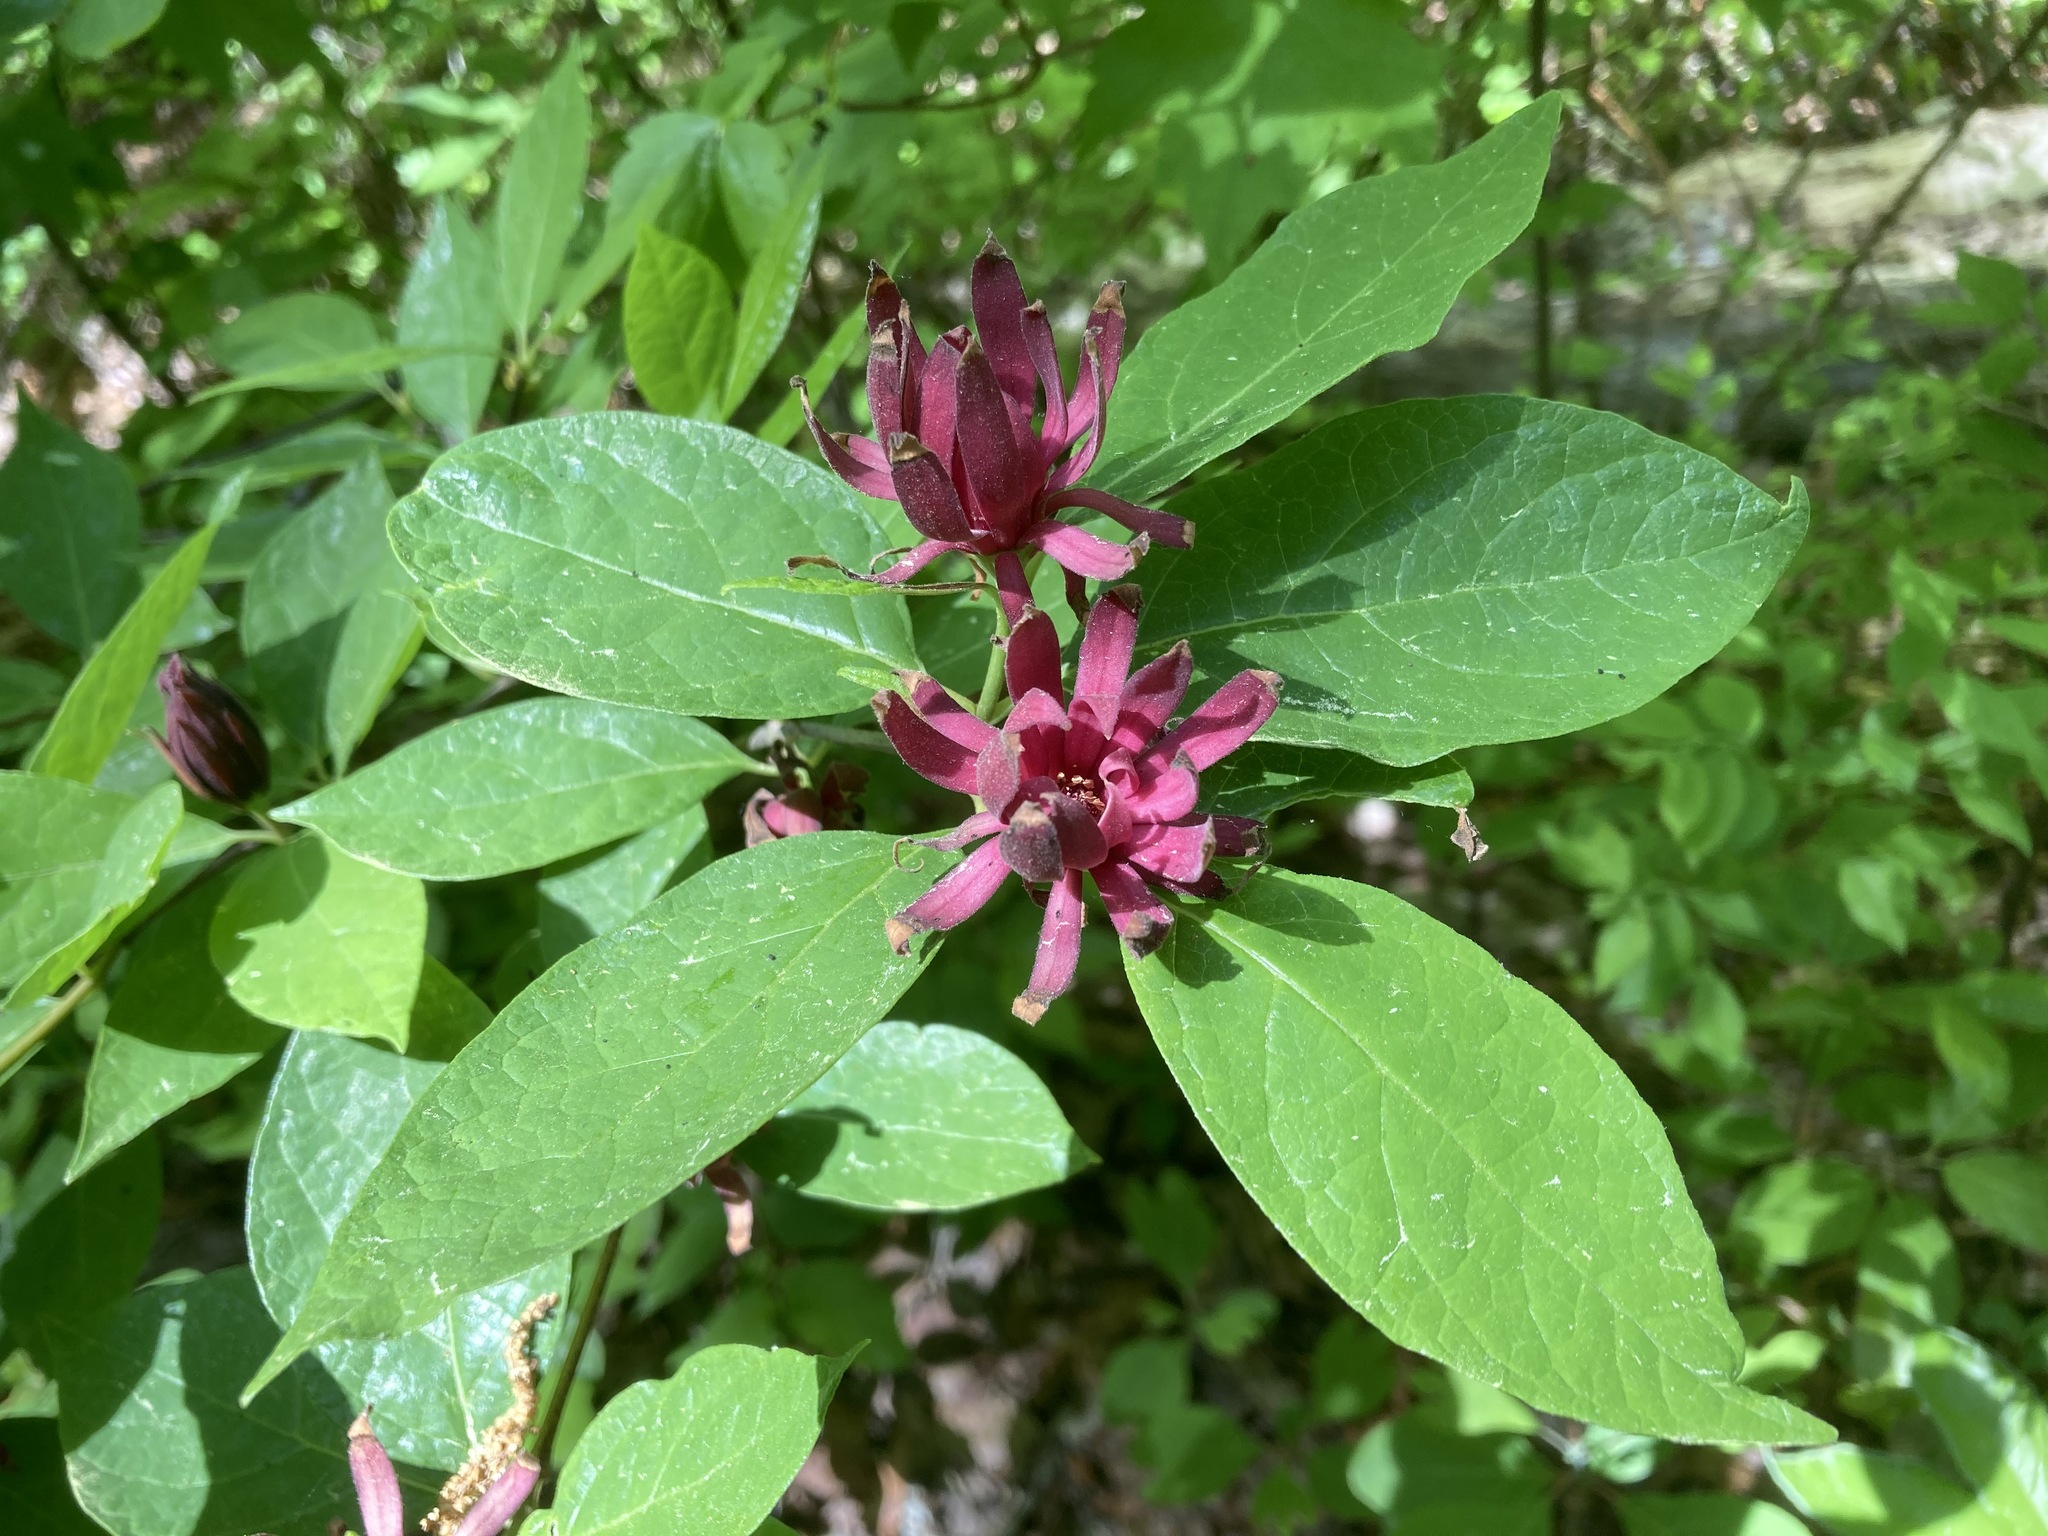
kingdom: Plantae
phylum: Tracheophyta
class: Magnoliopsida
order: Laurales
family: Calycanthaceae
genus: Calycanthus
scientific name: Calycanthus floridus
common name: Carolina-allspice
